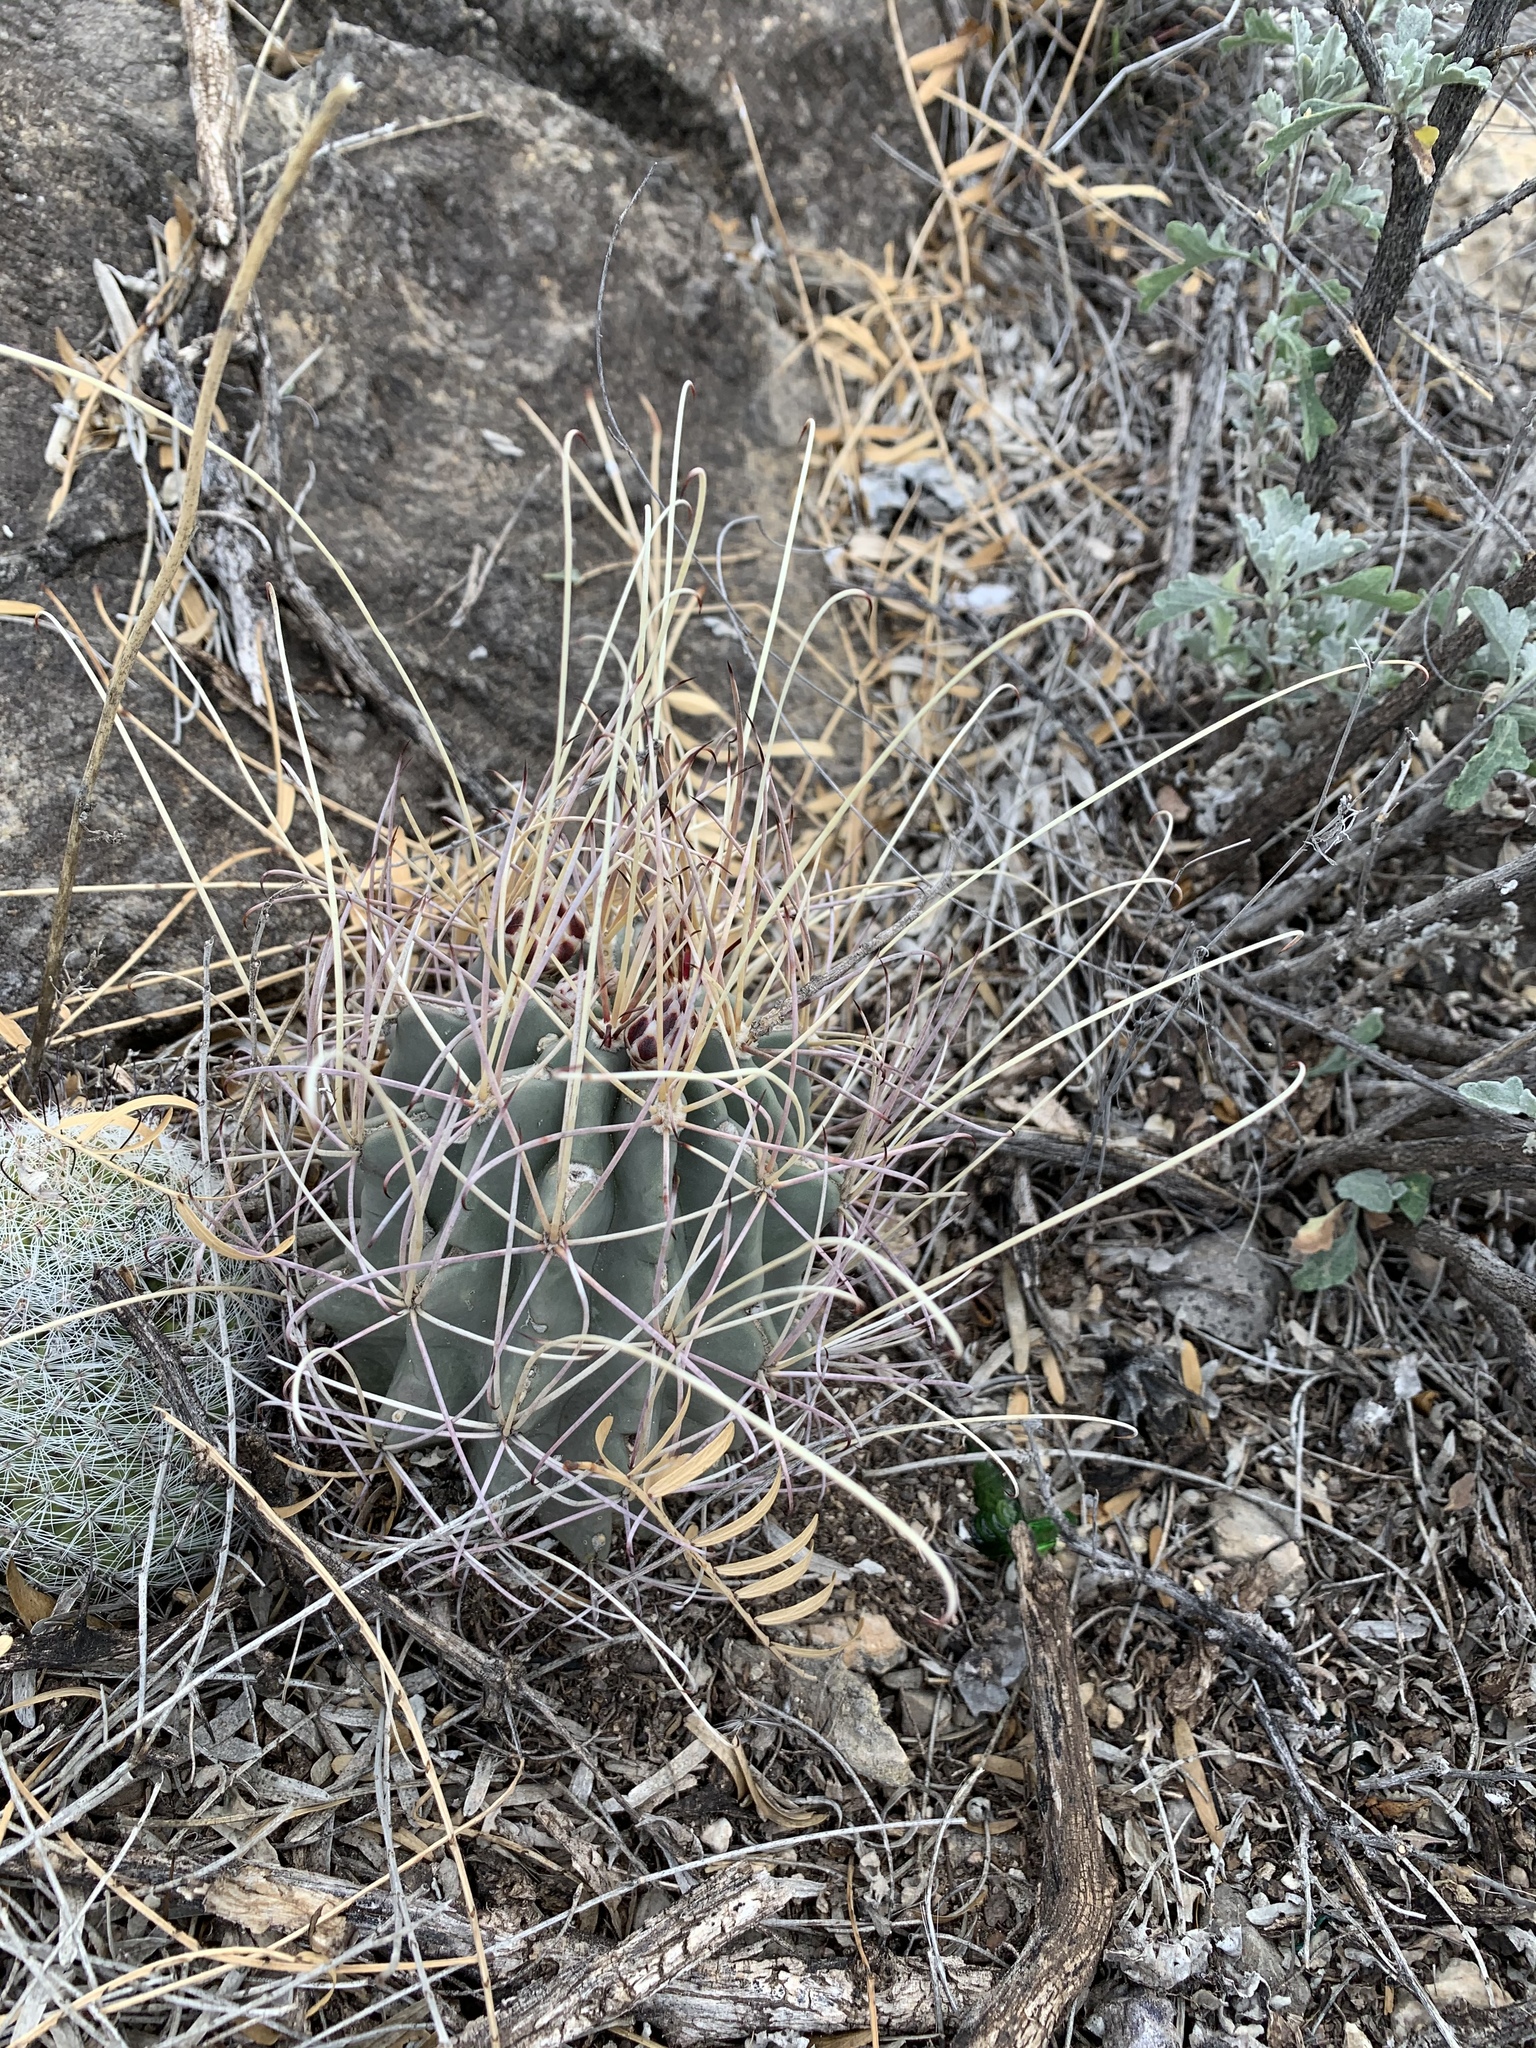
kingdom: Plantae
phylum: Tracheophyta
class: Magnoliopsida
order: Caryophyllales
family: Cactaceae
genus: Ferocactus
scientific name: Ferocactus uncinatus
